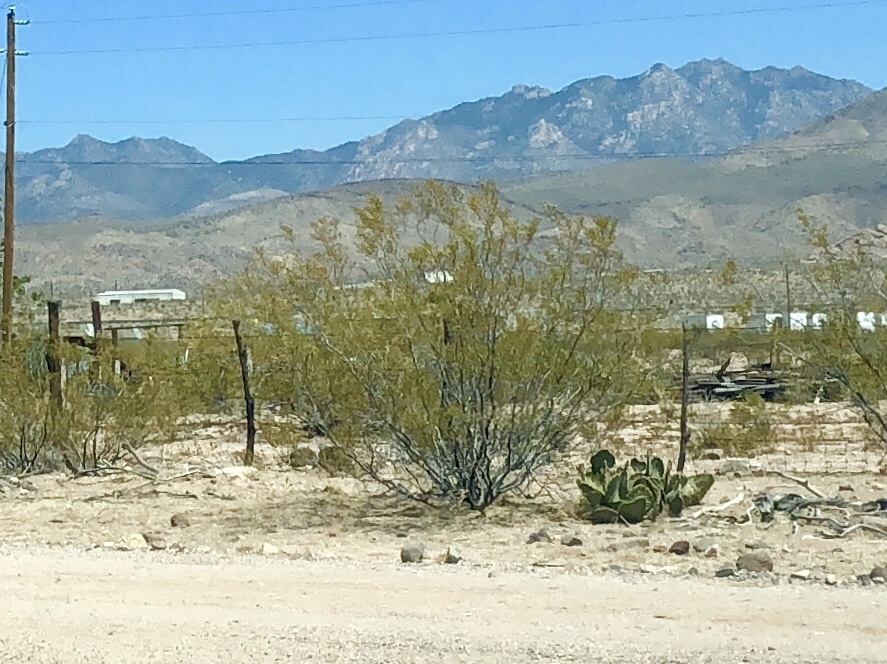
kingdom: Plantae
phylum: Tracheophyta
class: Magnoliopsida
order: Zygophyllales
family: Zygophyllaceae
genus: Larrea
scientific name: Larrea tridentata
